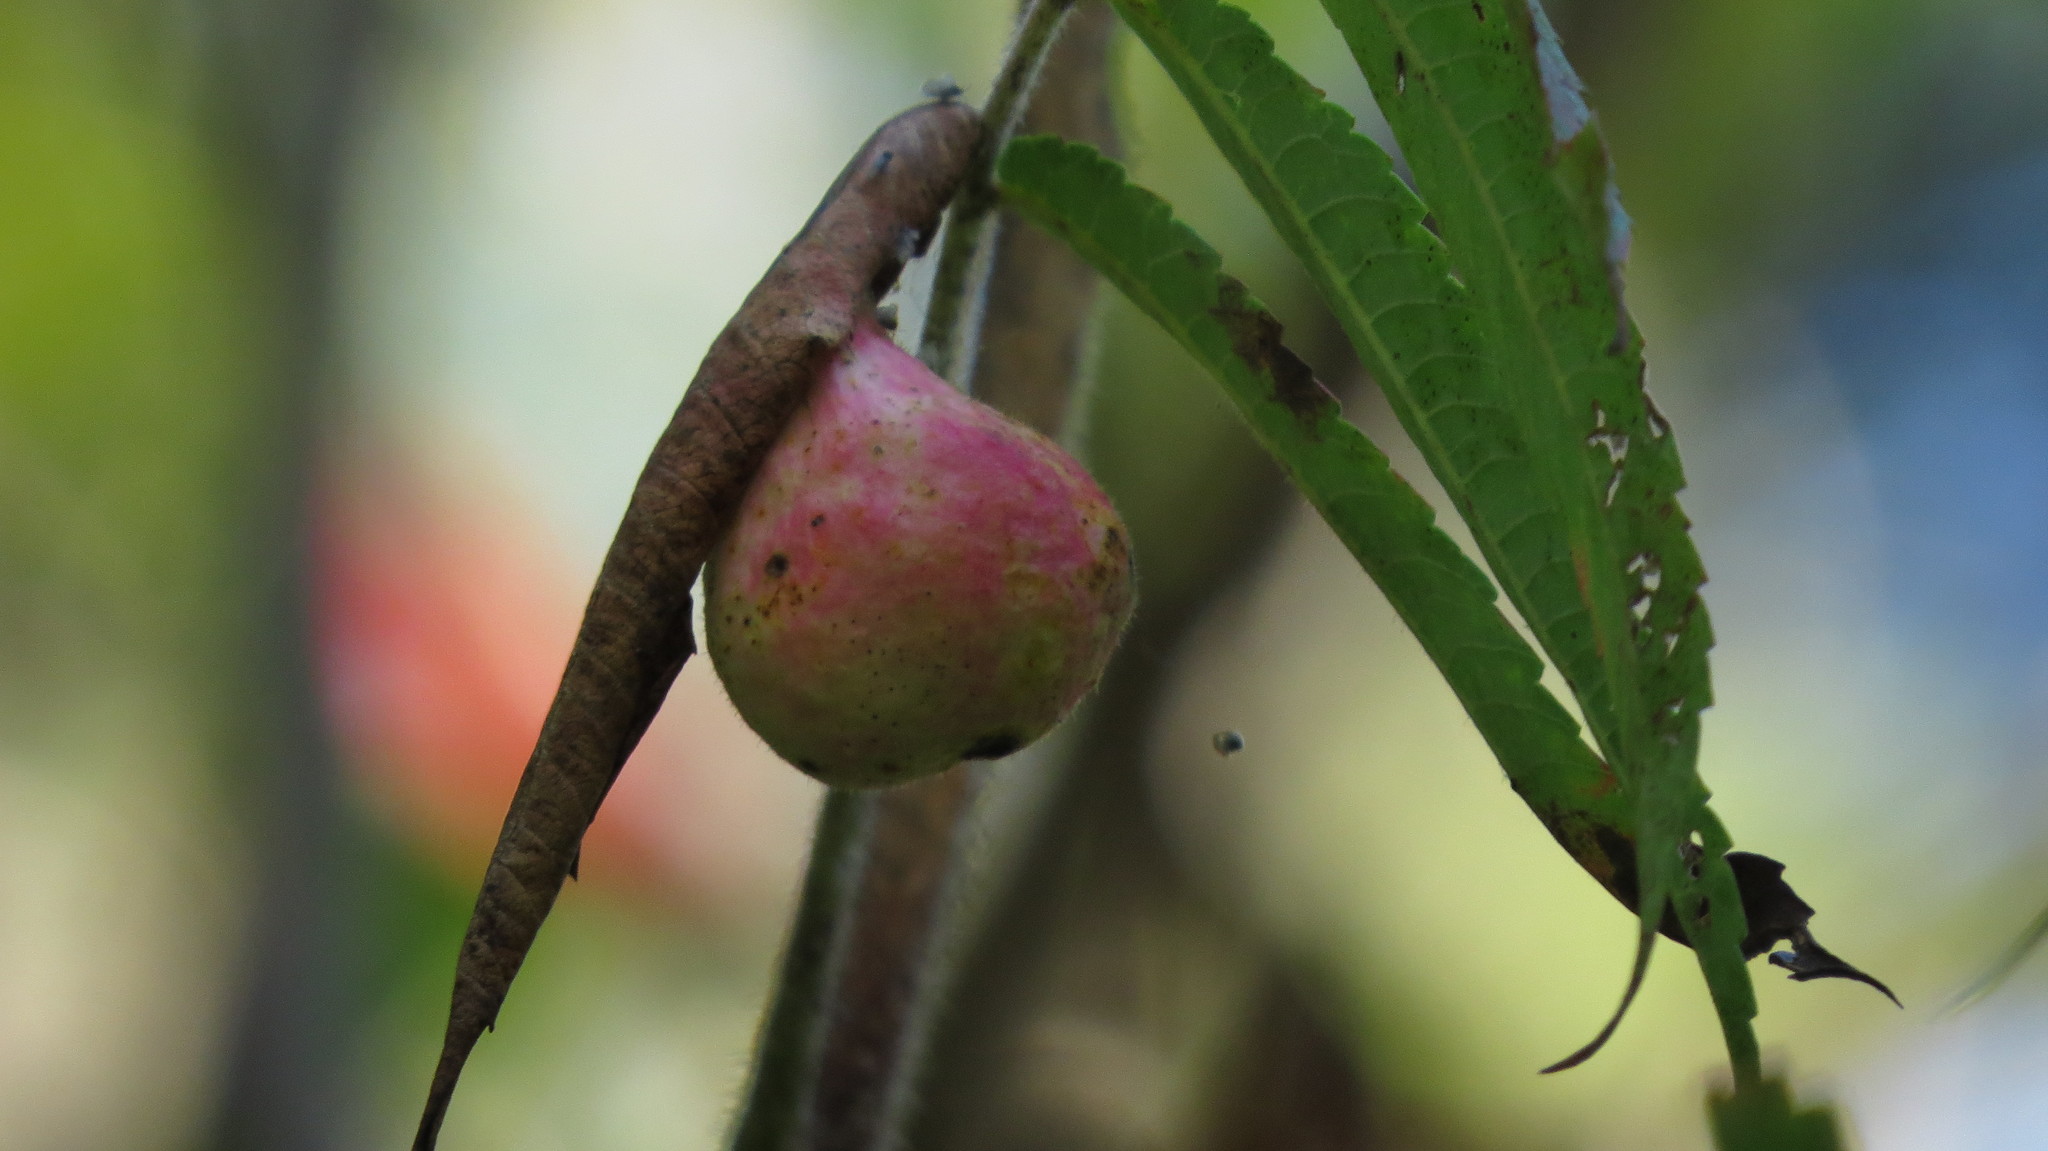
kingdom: Animalia
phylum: Arthropoda
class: Insecta
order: Hemiptera
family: Aphididae
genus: Melaphis
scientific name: Melaphis rhois
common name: Sumac gall aphid
